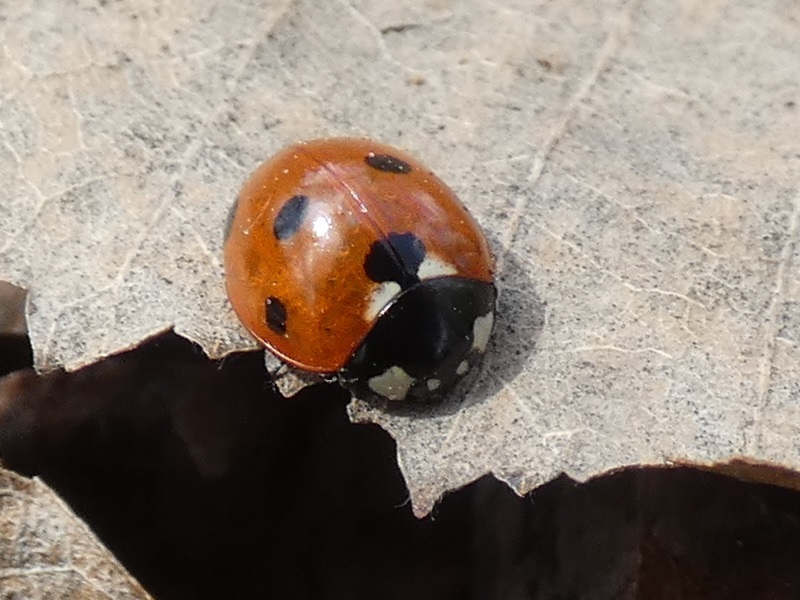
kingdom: Animalia
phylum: Arthropoda
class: Insecta
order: Coleoptera
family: Coccinellidae
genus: Coccinella
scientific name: Coccinella septempunctata
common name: Sevenspotted lady beetle
